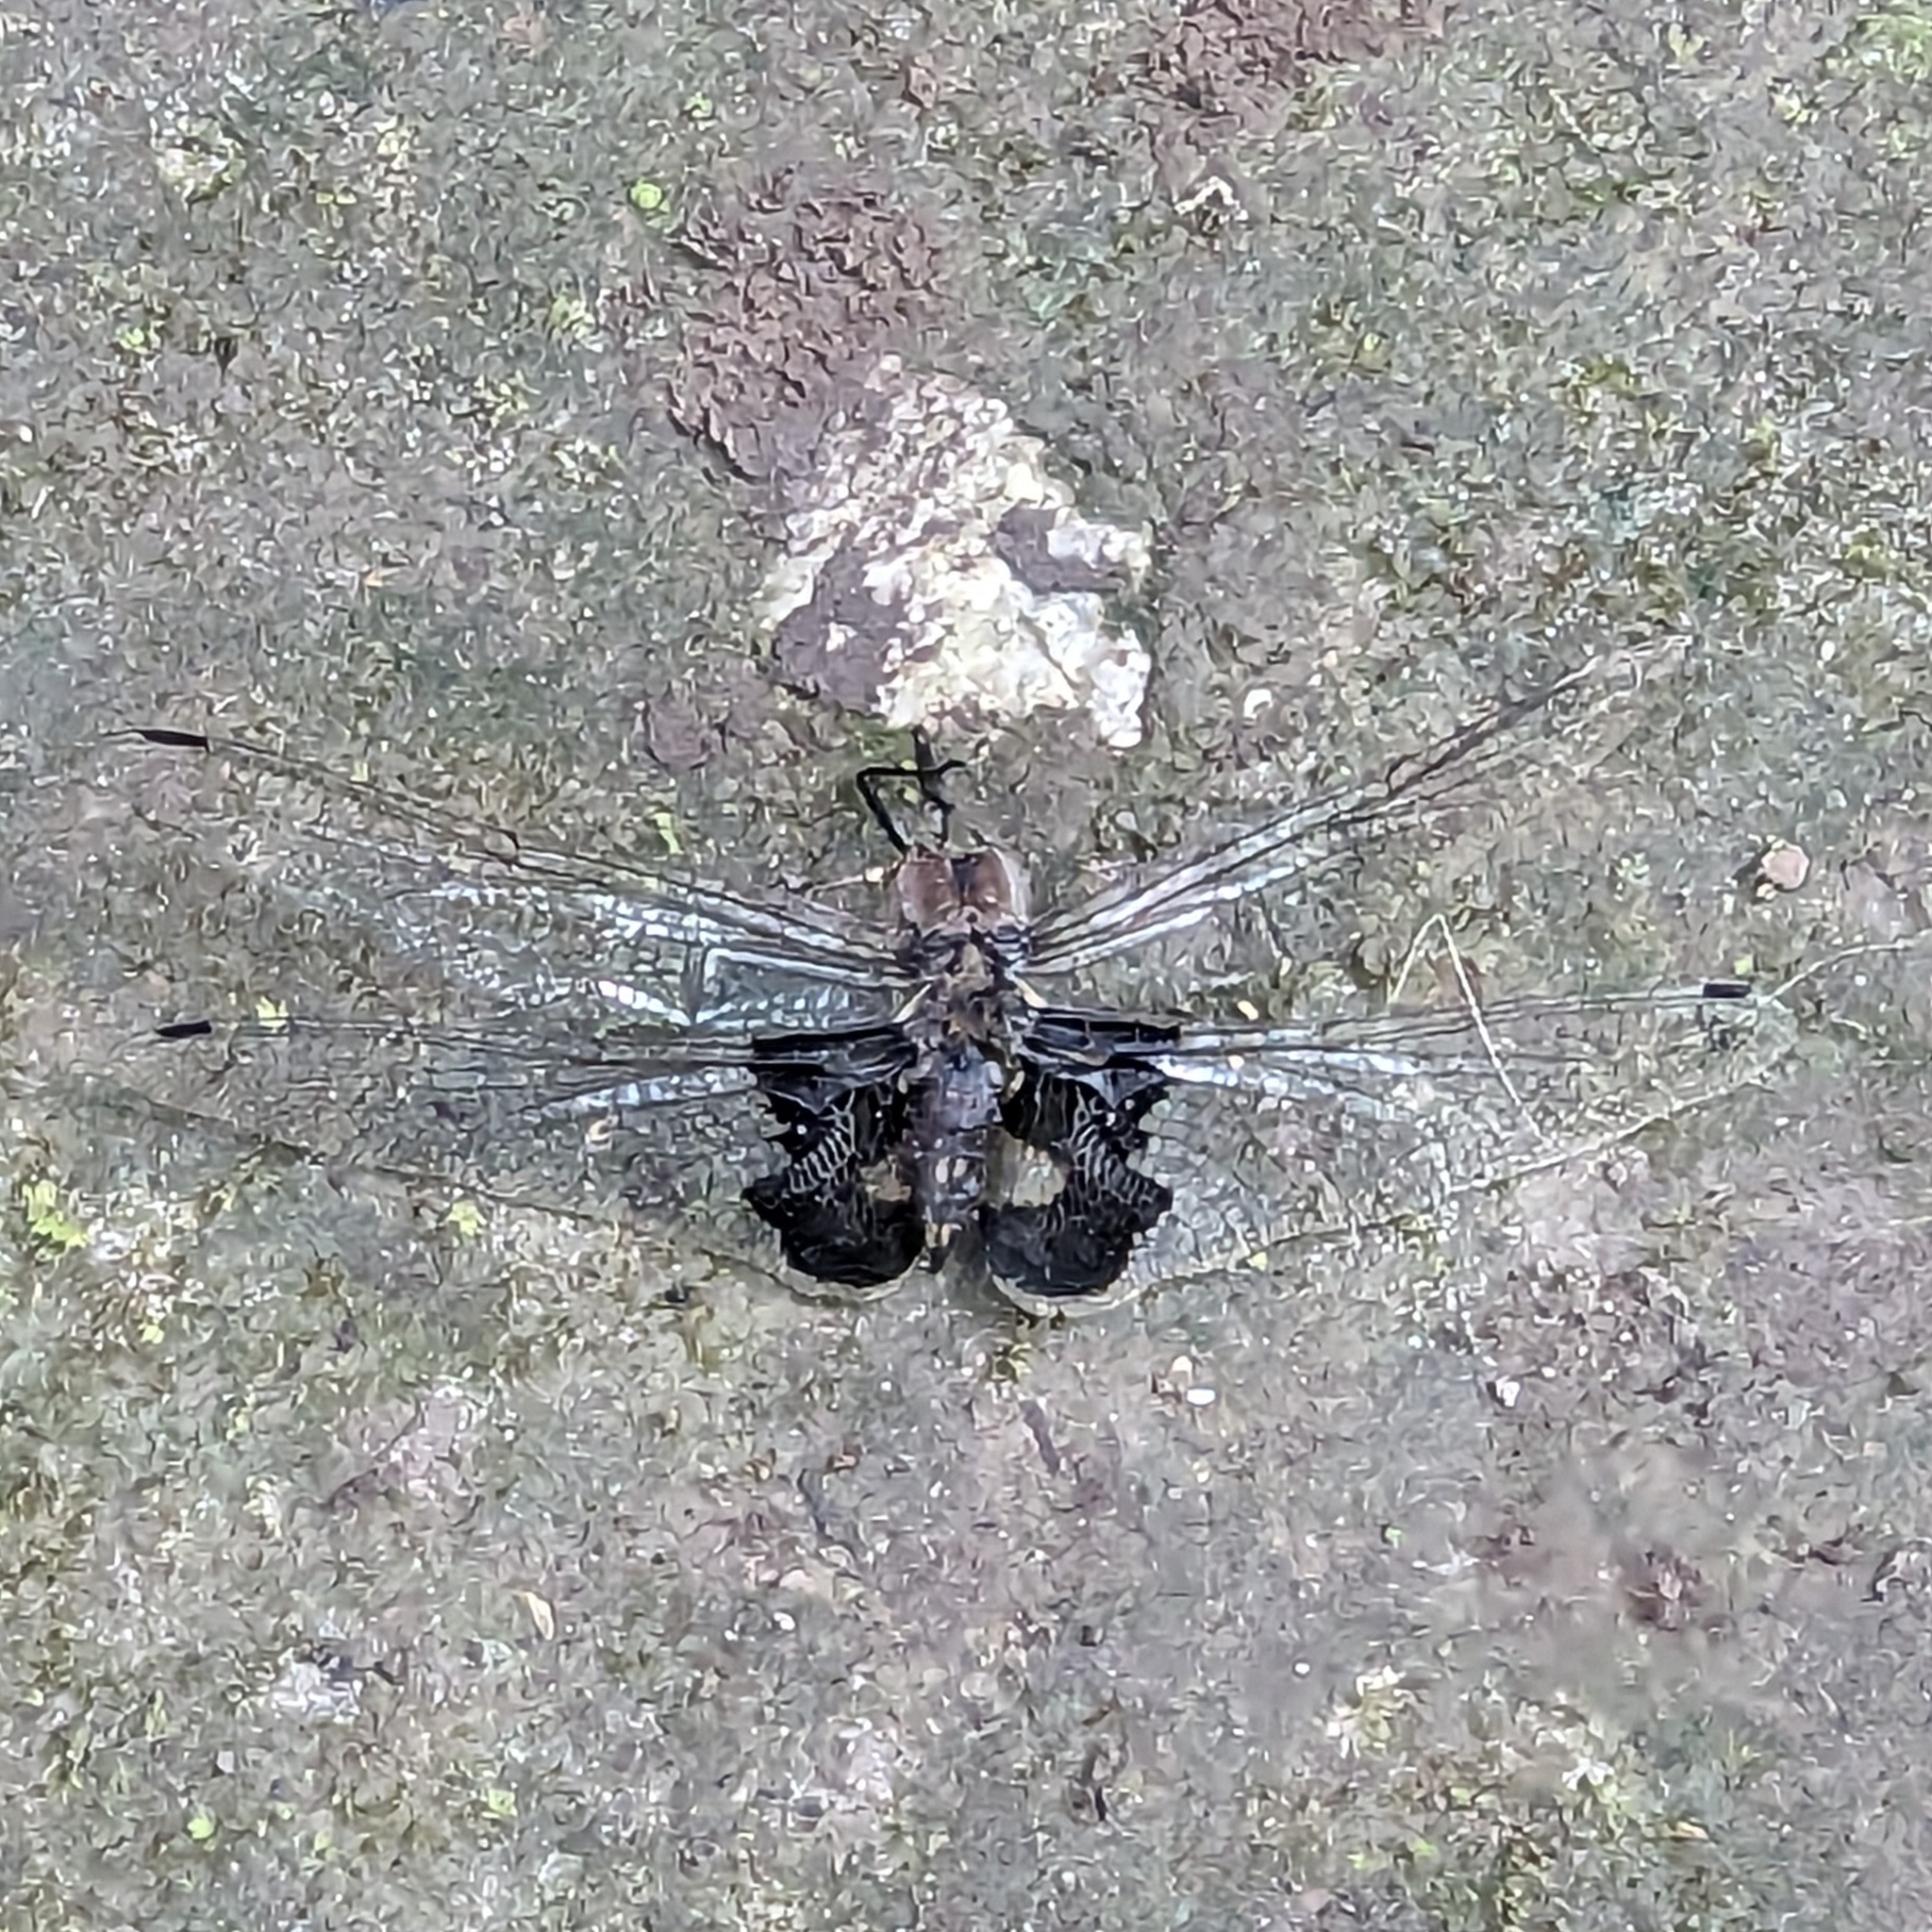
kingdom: Animalia
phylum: Arthropoda
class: Insecta
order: Odonata
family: Libellulidae
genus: Tramea
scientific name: Tramea lacerata
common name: Black saddlebags
